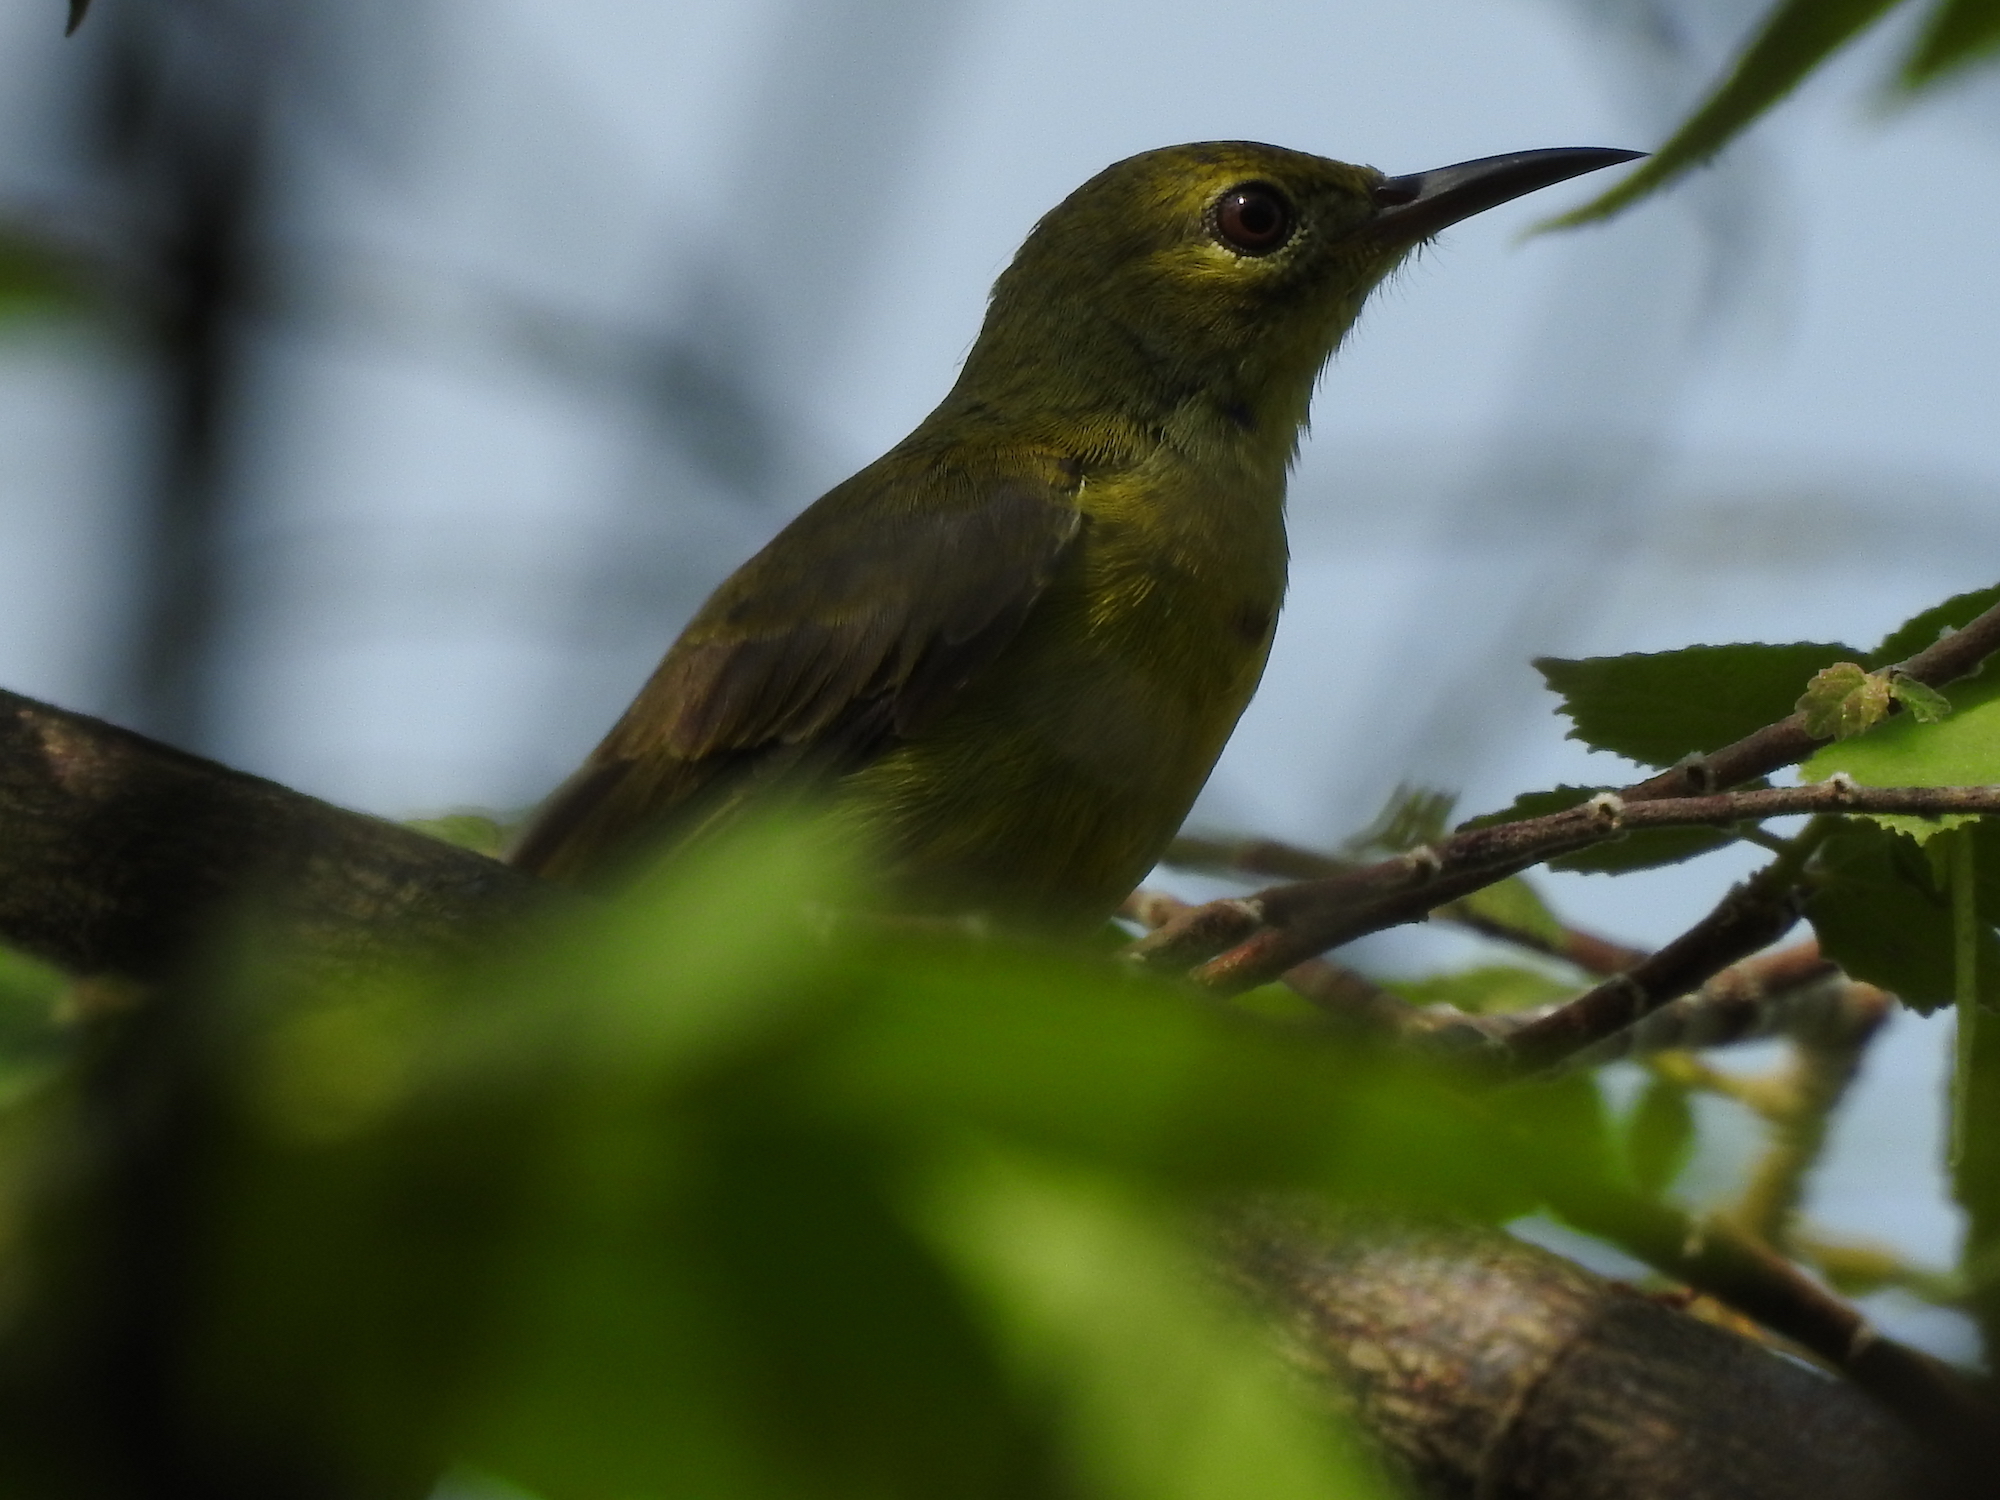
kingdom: Animalia
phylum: Chordata
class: Aves
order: Passeriformes
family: Nectariniidae
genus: Anthreptes
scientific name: Anthreptes malacensis
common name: Brown-throated sunbird
